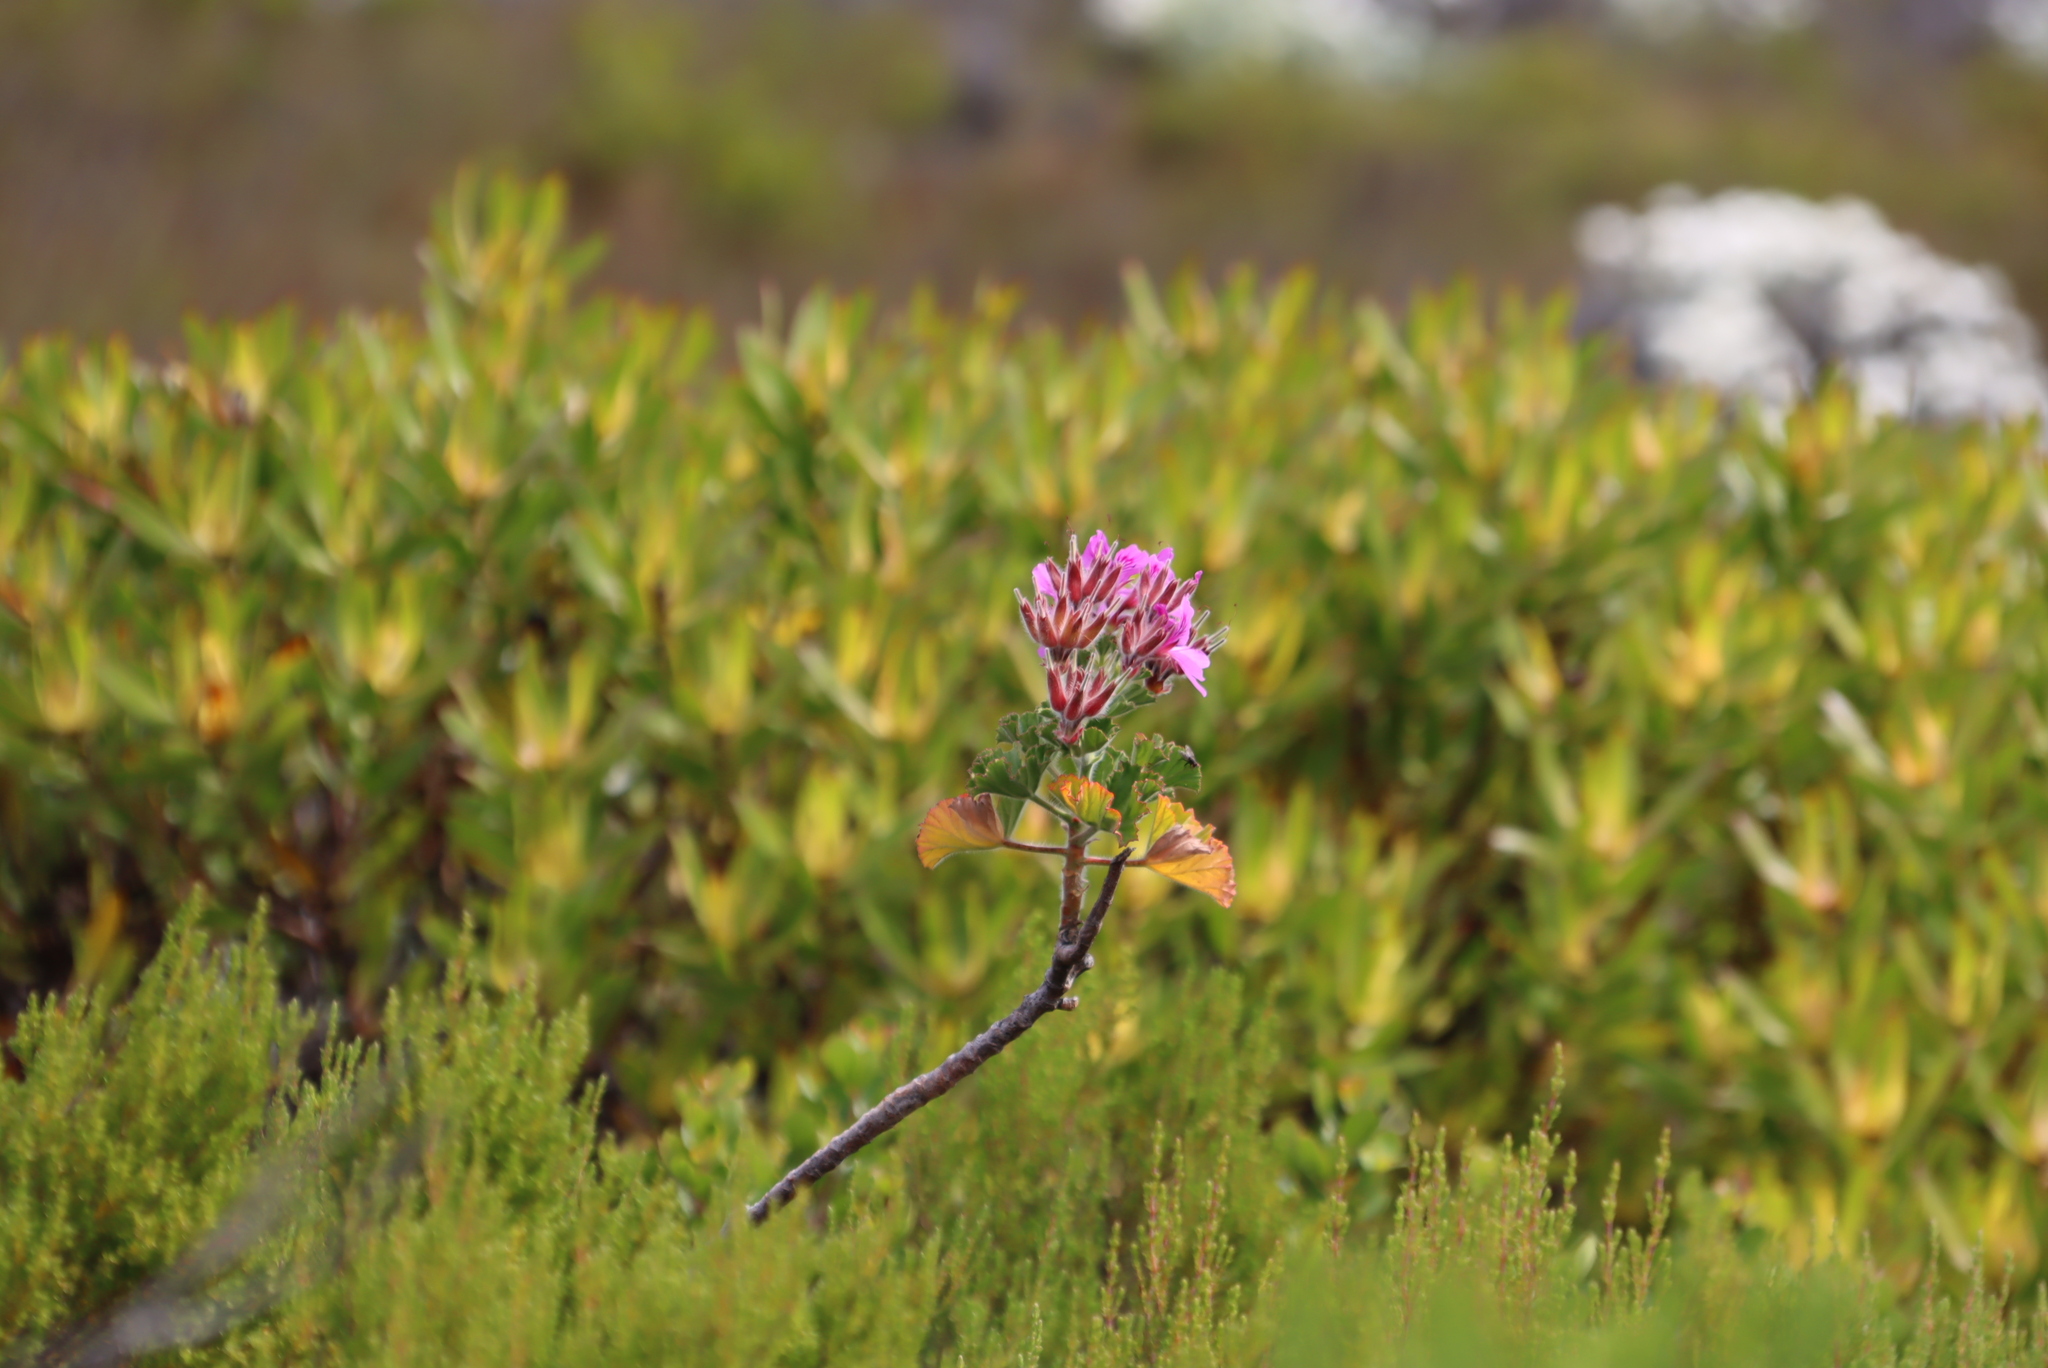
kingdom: Plantae
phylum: Tracheophyta
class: Magnoliopsida
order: Geraniales
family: Geraniaceae
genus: Pelargonium
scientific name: Pelargonium cucullatum
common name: Tree pelargonium
